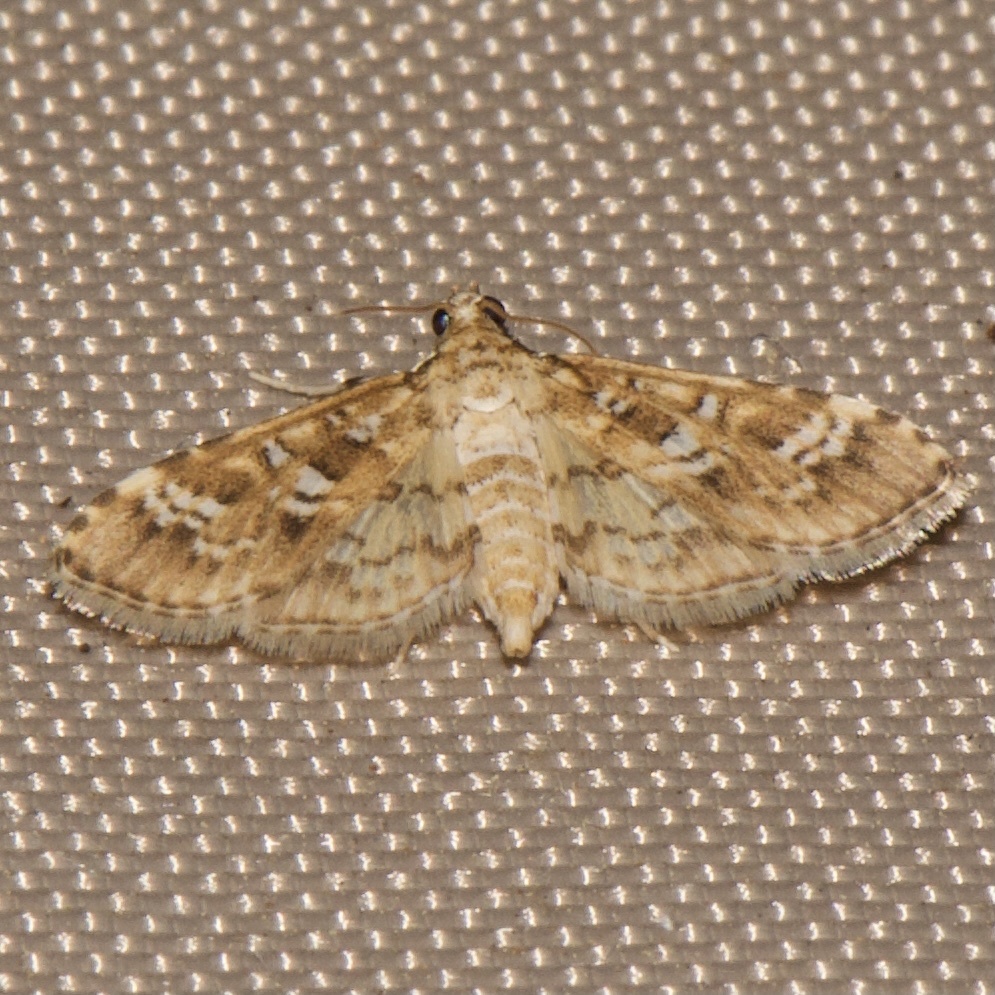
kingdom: Animalia
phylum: Arthropoda
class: Insecta
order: Lepidoptera
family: Crambidae
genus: Samea
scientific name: Samea multiplicalis
